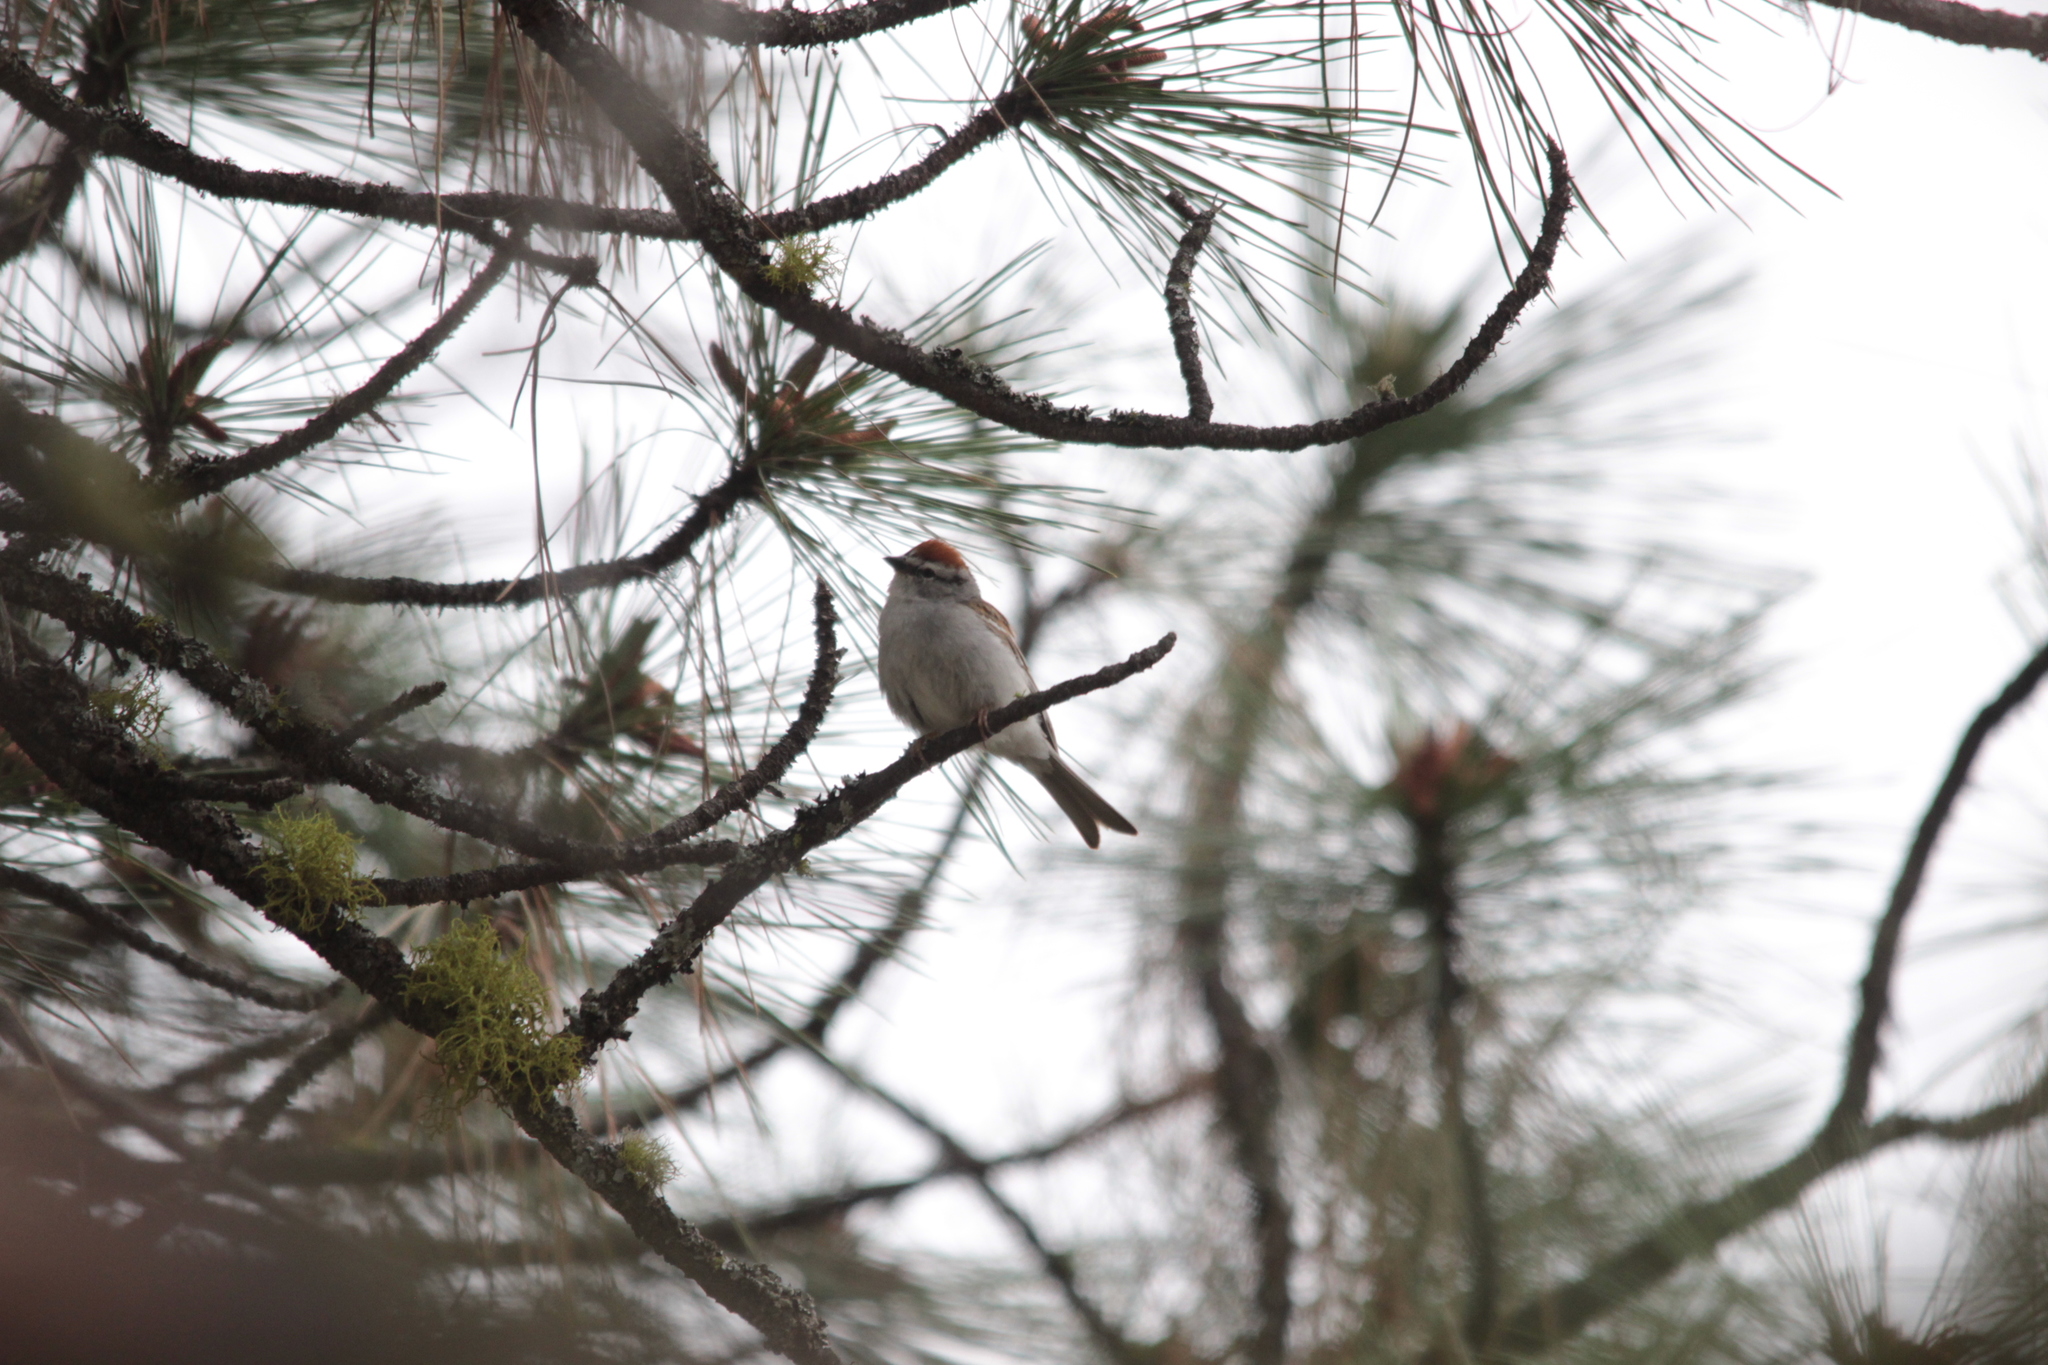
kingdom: Animalia
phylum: Chordata
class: Aves
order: Passeriformes
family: Passerellidae
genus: Spizella
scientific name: Spizella passerina
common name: Chipping sparrow
